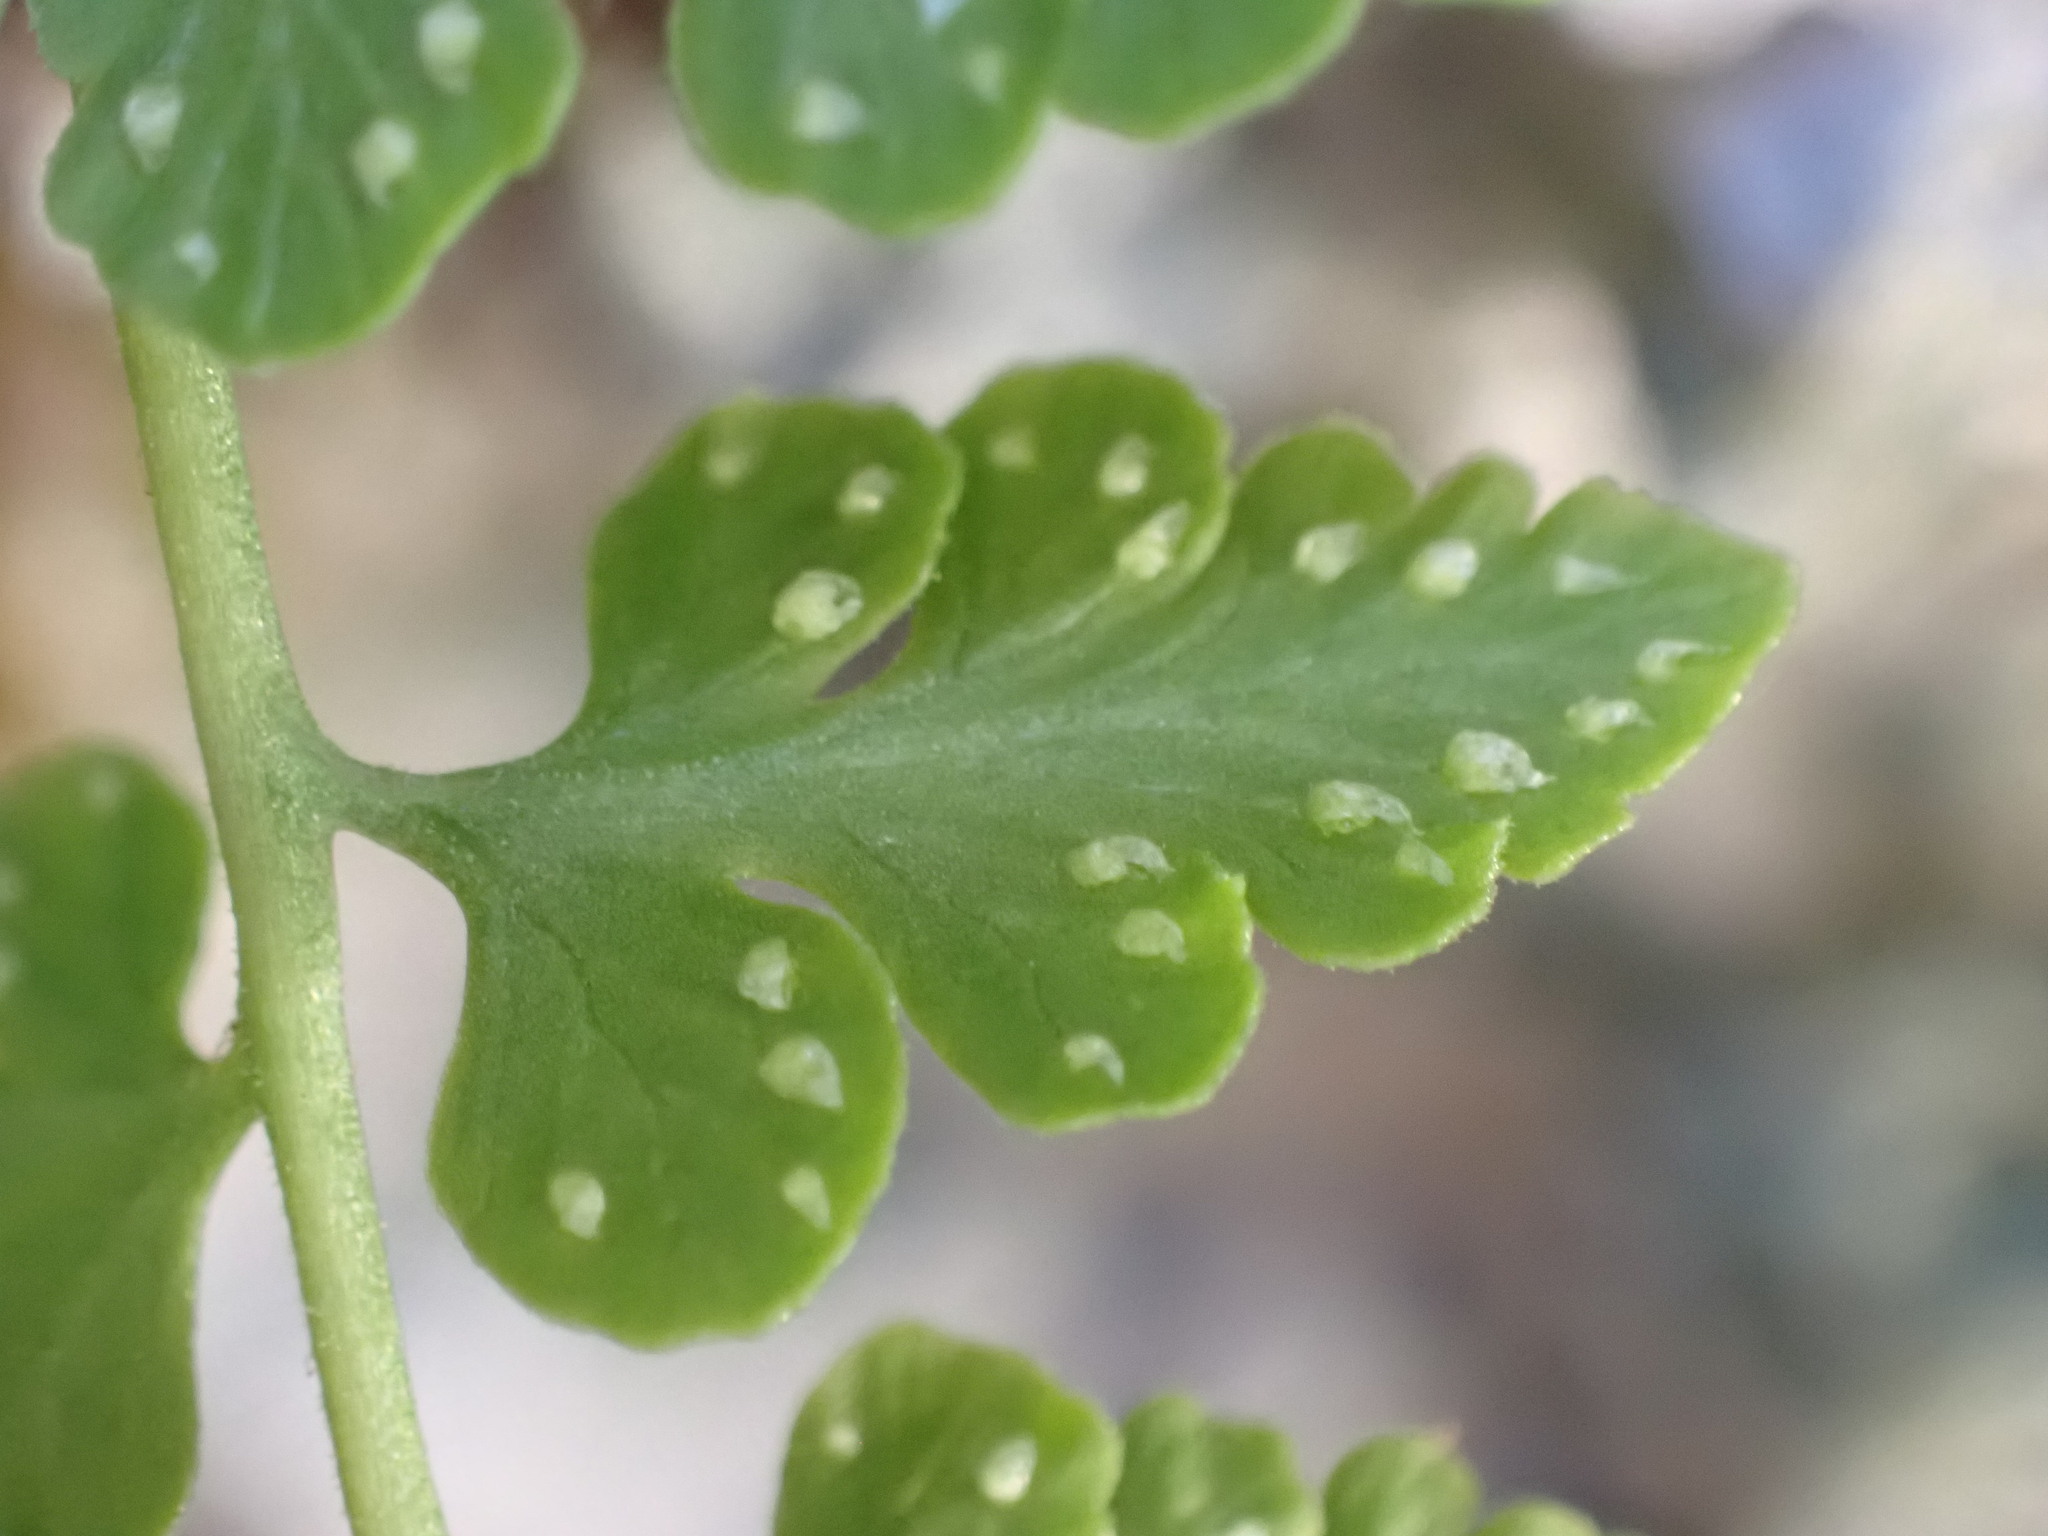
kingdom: Plantae
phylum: Tracheophyta
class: Polypodiopsida
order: Polypodiales
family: Cystopteridaceae
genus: Cystopteris
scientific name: Cystopteris tasmanica
